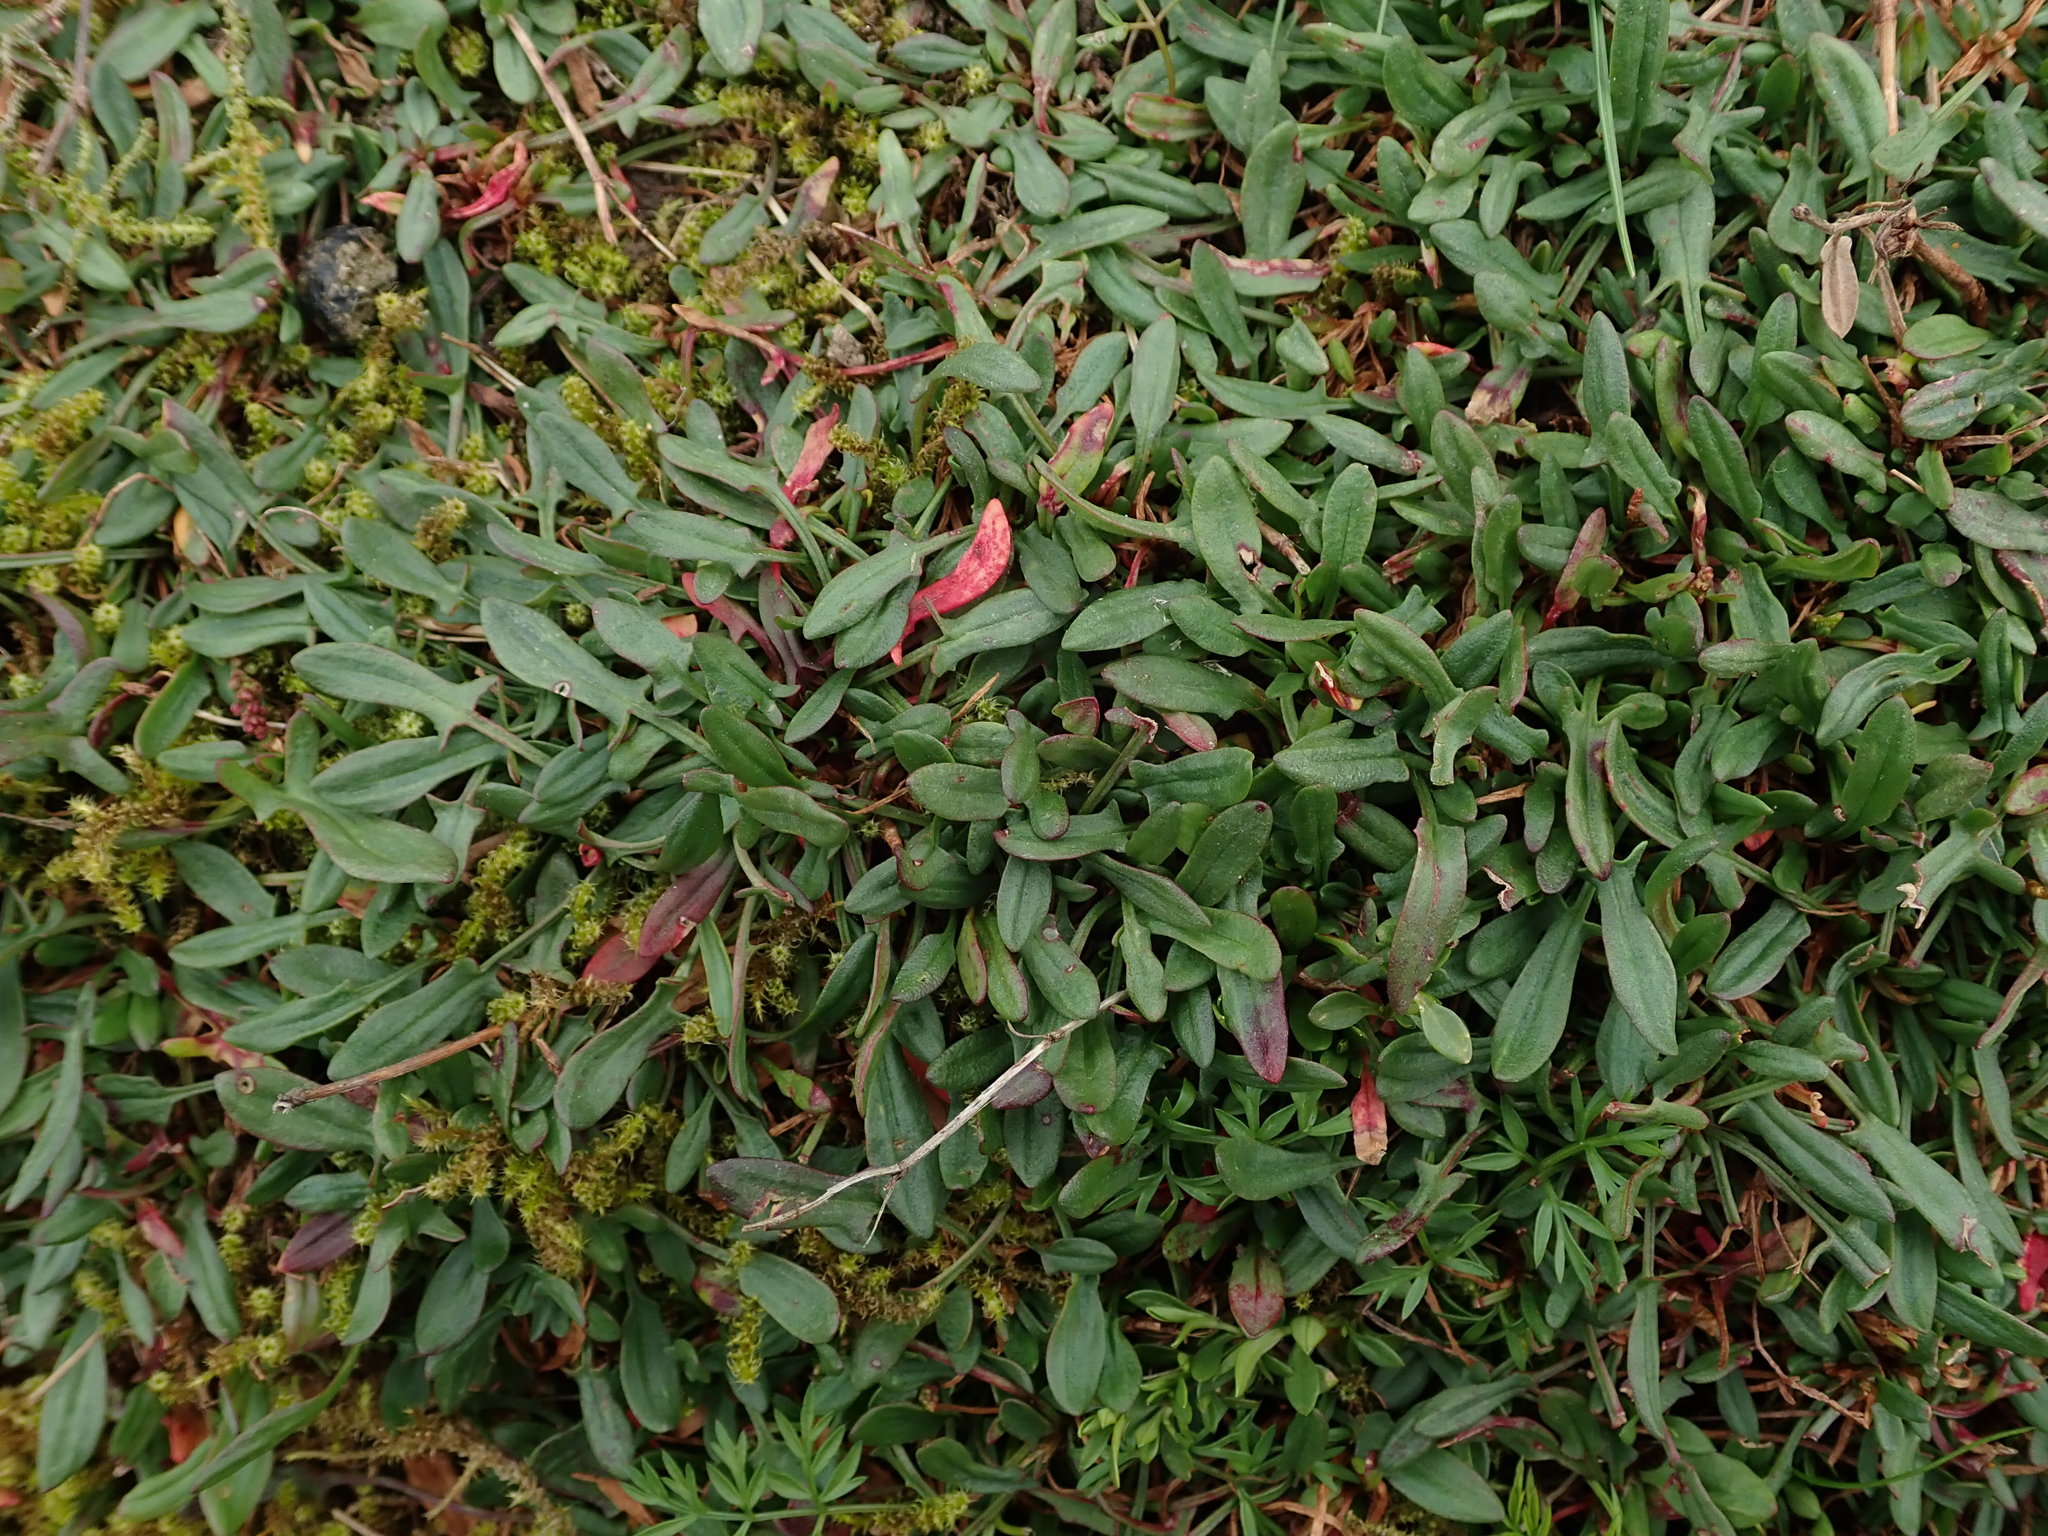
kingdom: Plantae
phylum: Tracheophyta
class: Magnoliopsida
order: Caryophyllales
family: Polygonaceae
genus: Rumex
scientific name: Rumex acetosella
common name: Common sheep sorrel
